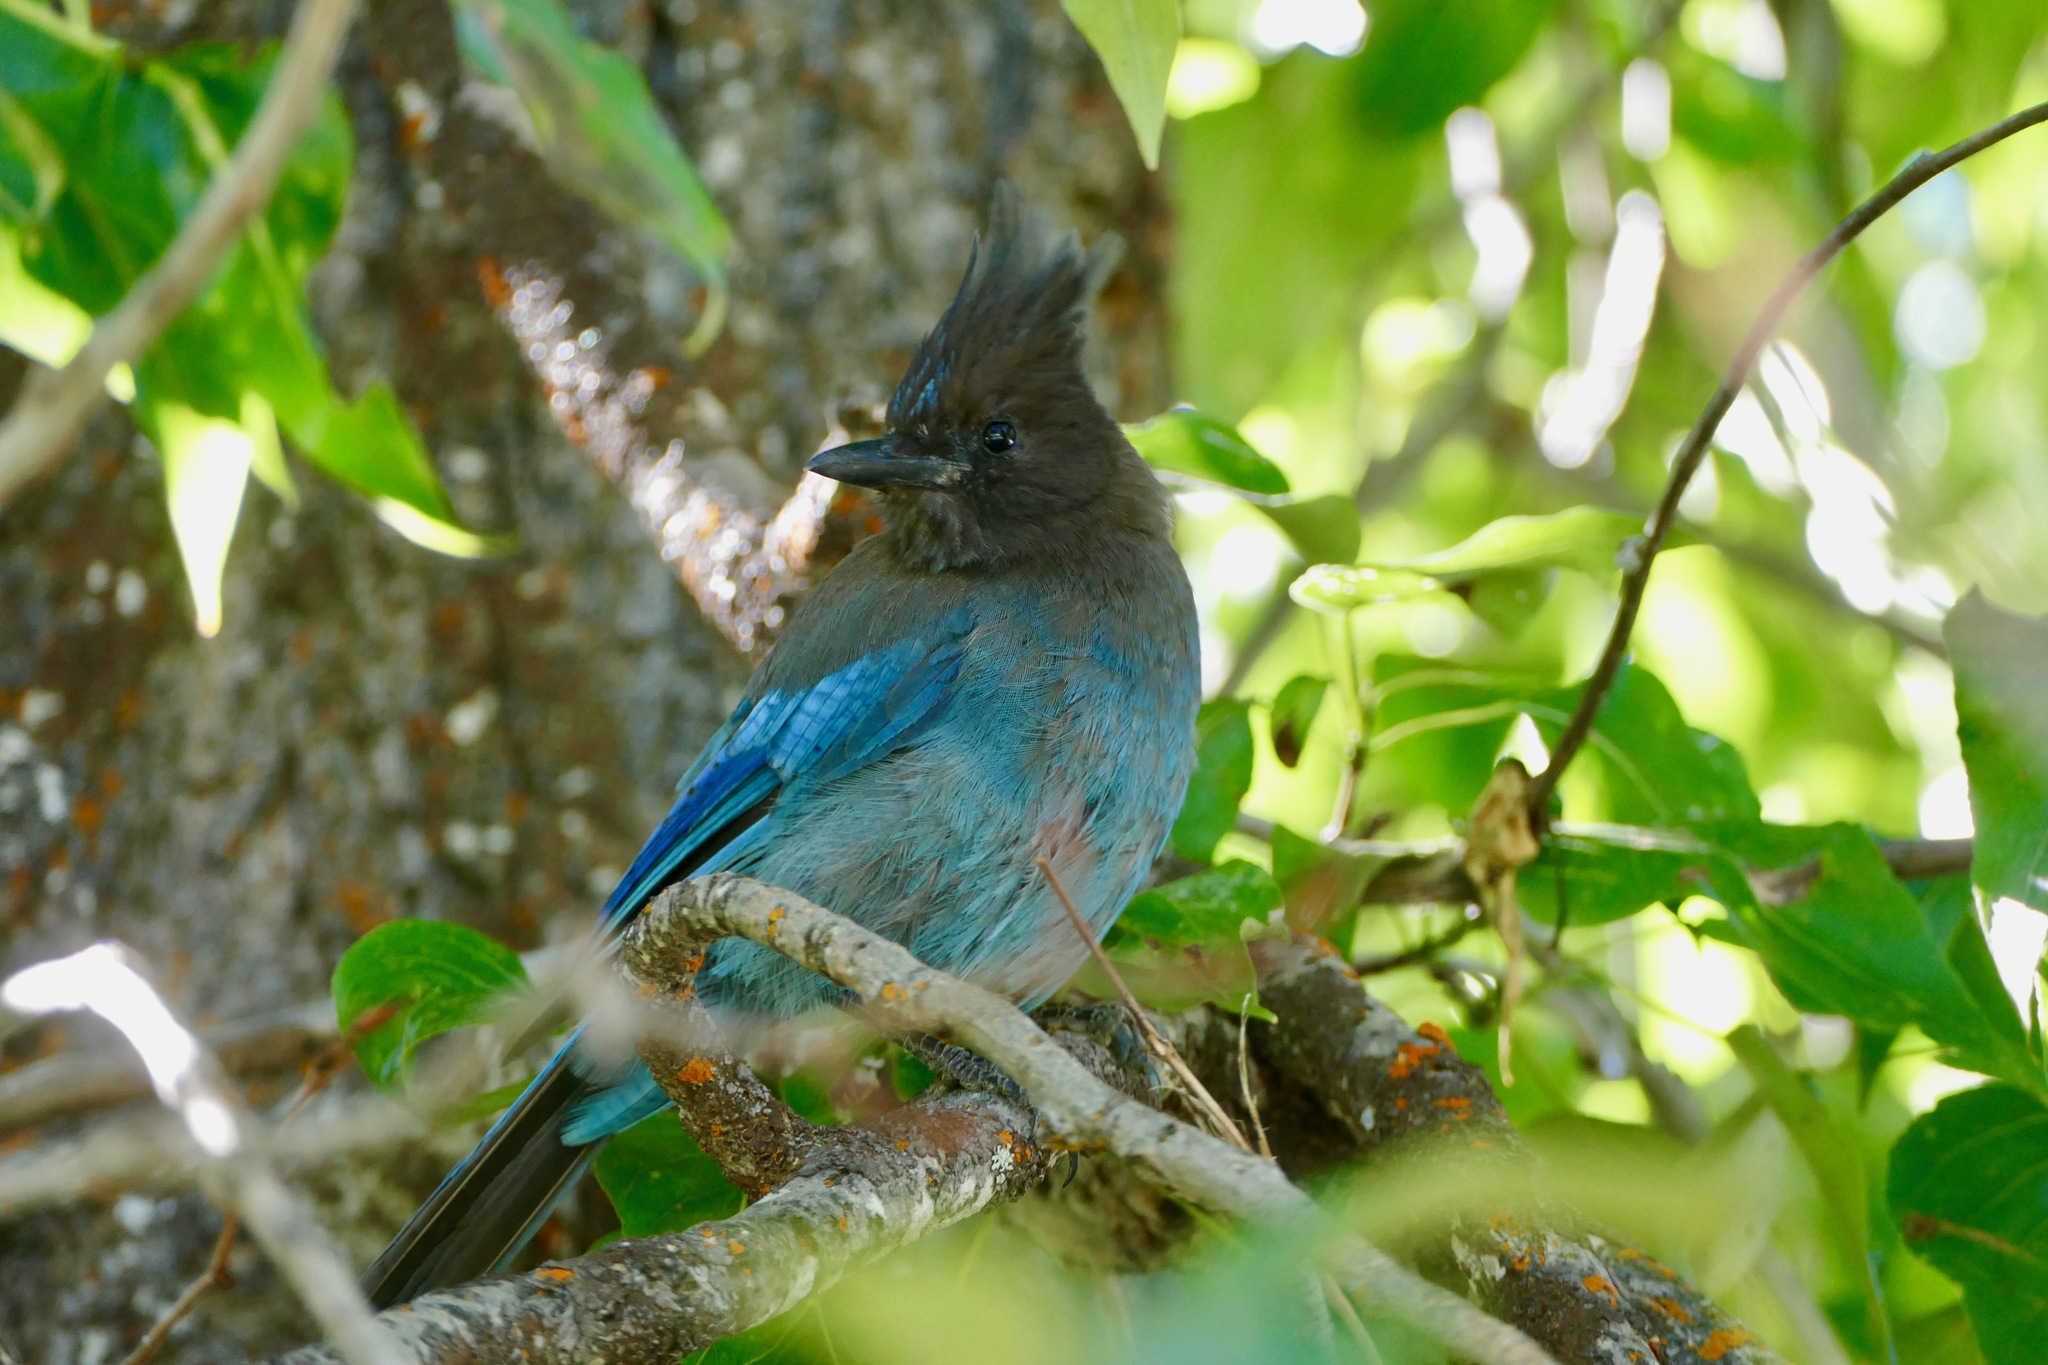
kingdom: Animalia
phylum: Chordata
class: Aves
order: Passeriformes
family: Corvidae
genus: Cyanocitta
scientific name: Cyanocitta stelleri
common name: Steller's jay
